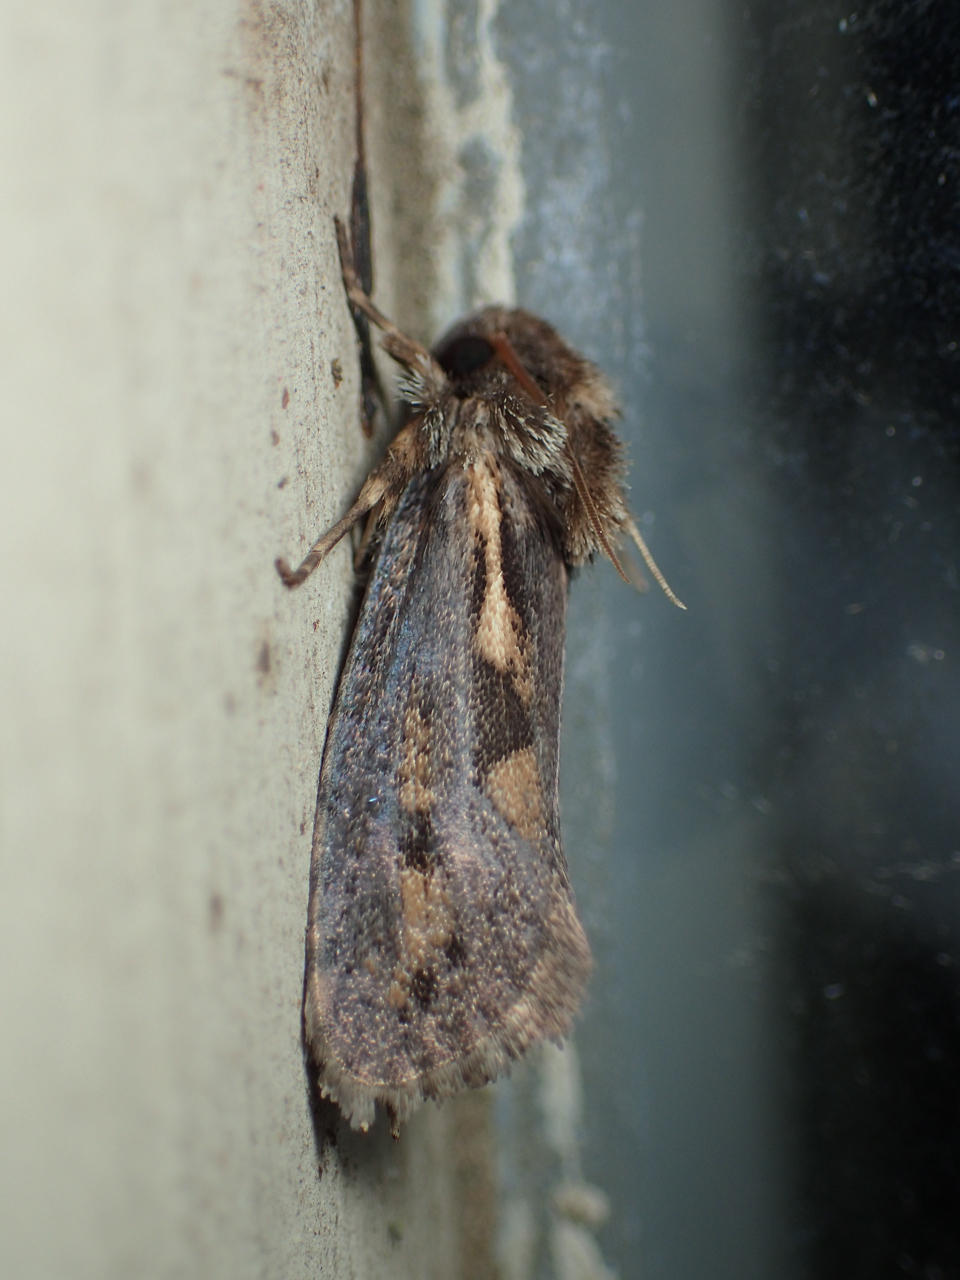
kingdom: Animalia
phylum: Arthropoda
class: Insecta
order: Lepidoptera
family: Tineidae
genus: Acrolophus
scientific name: Acrolophus popeanella
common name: Clemens' grass tubeworm moth
